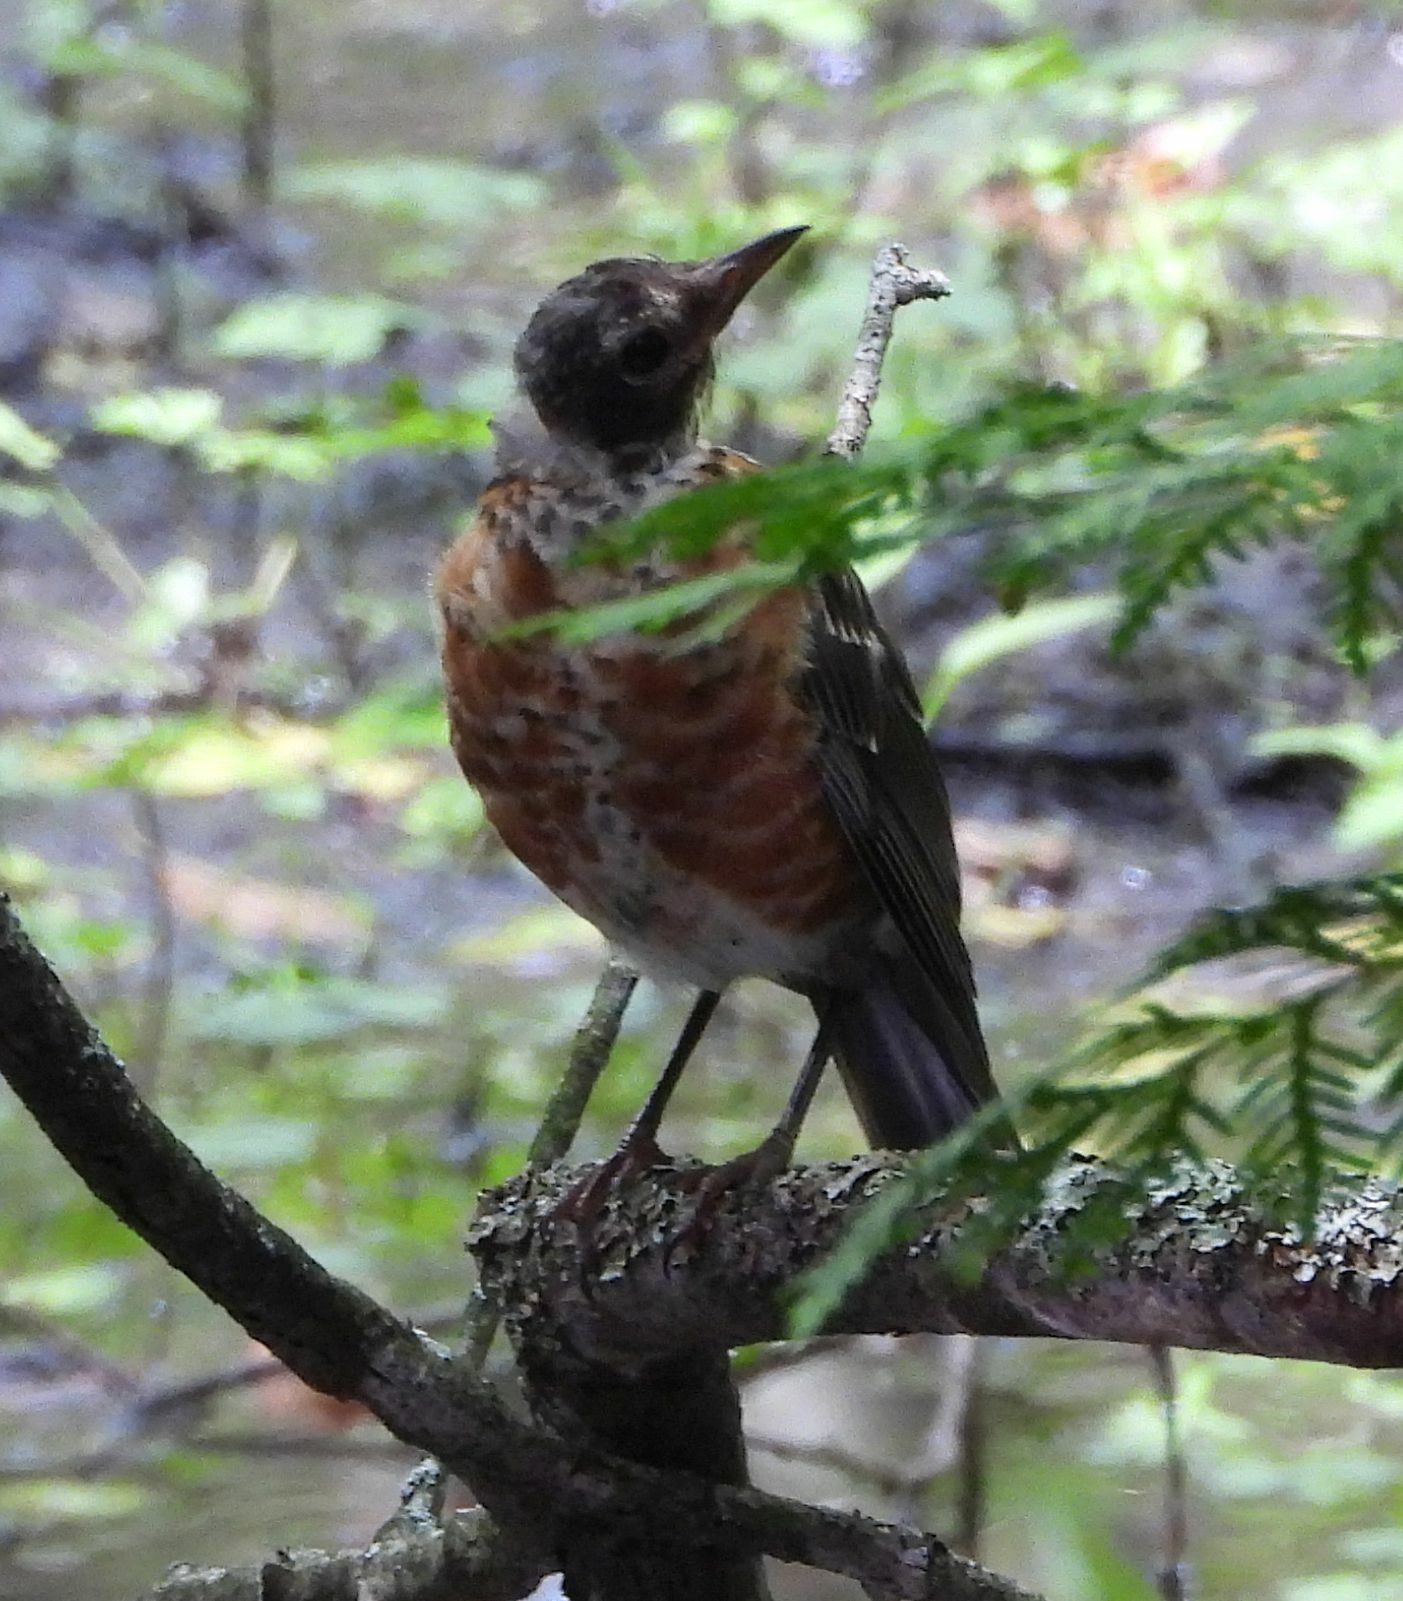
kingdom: Animalia
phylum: Chordata
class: Aves
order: Passeriformes
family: Turdidae
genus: Turdus
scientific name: Turdus migratorius
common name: American robin
